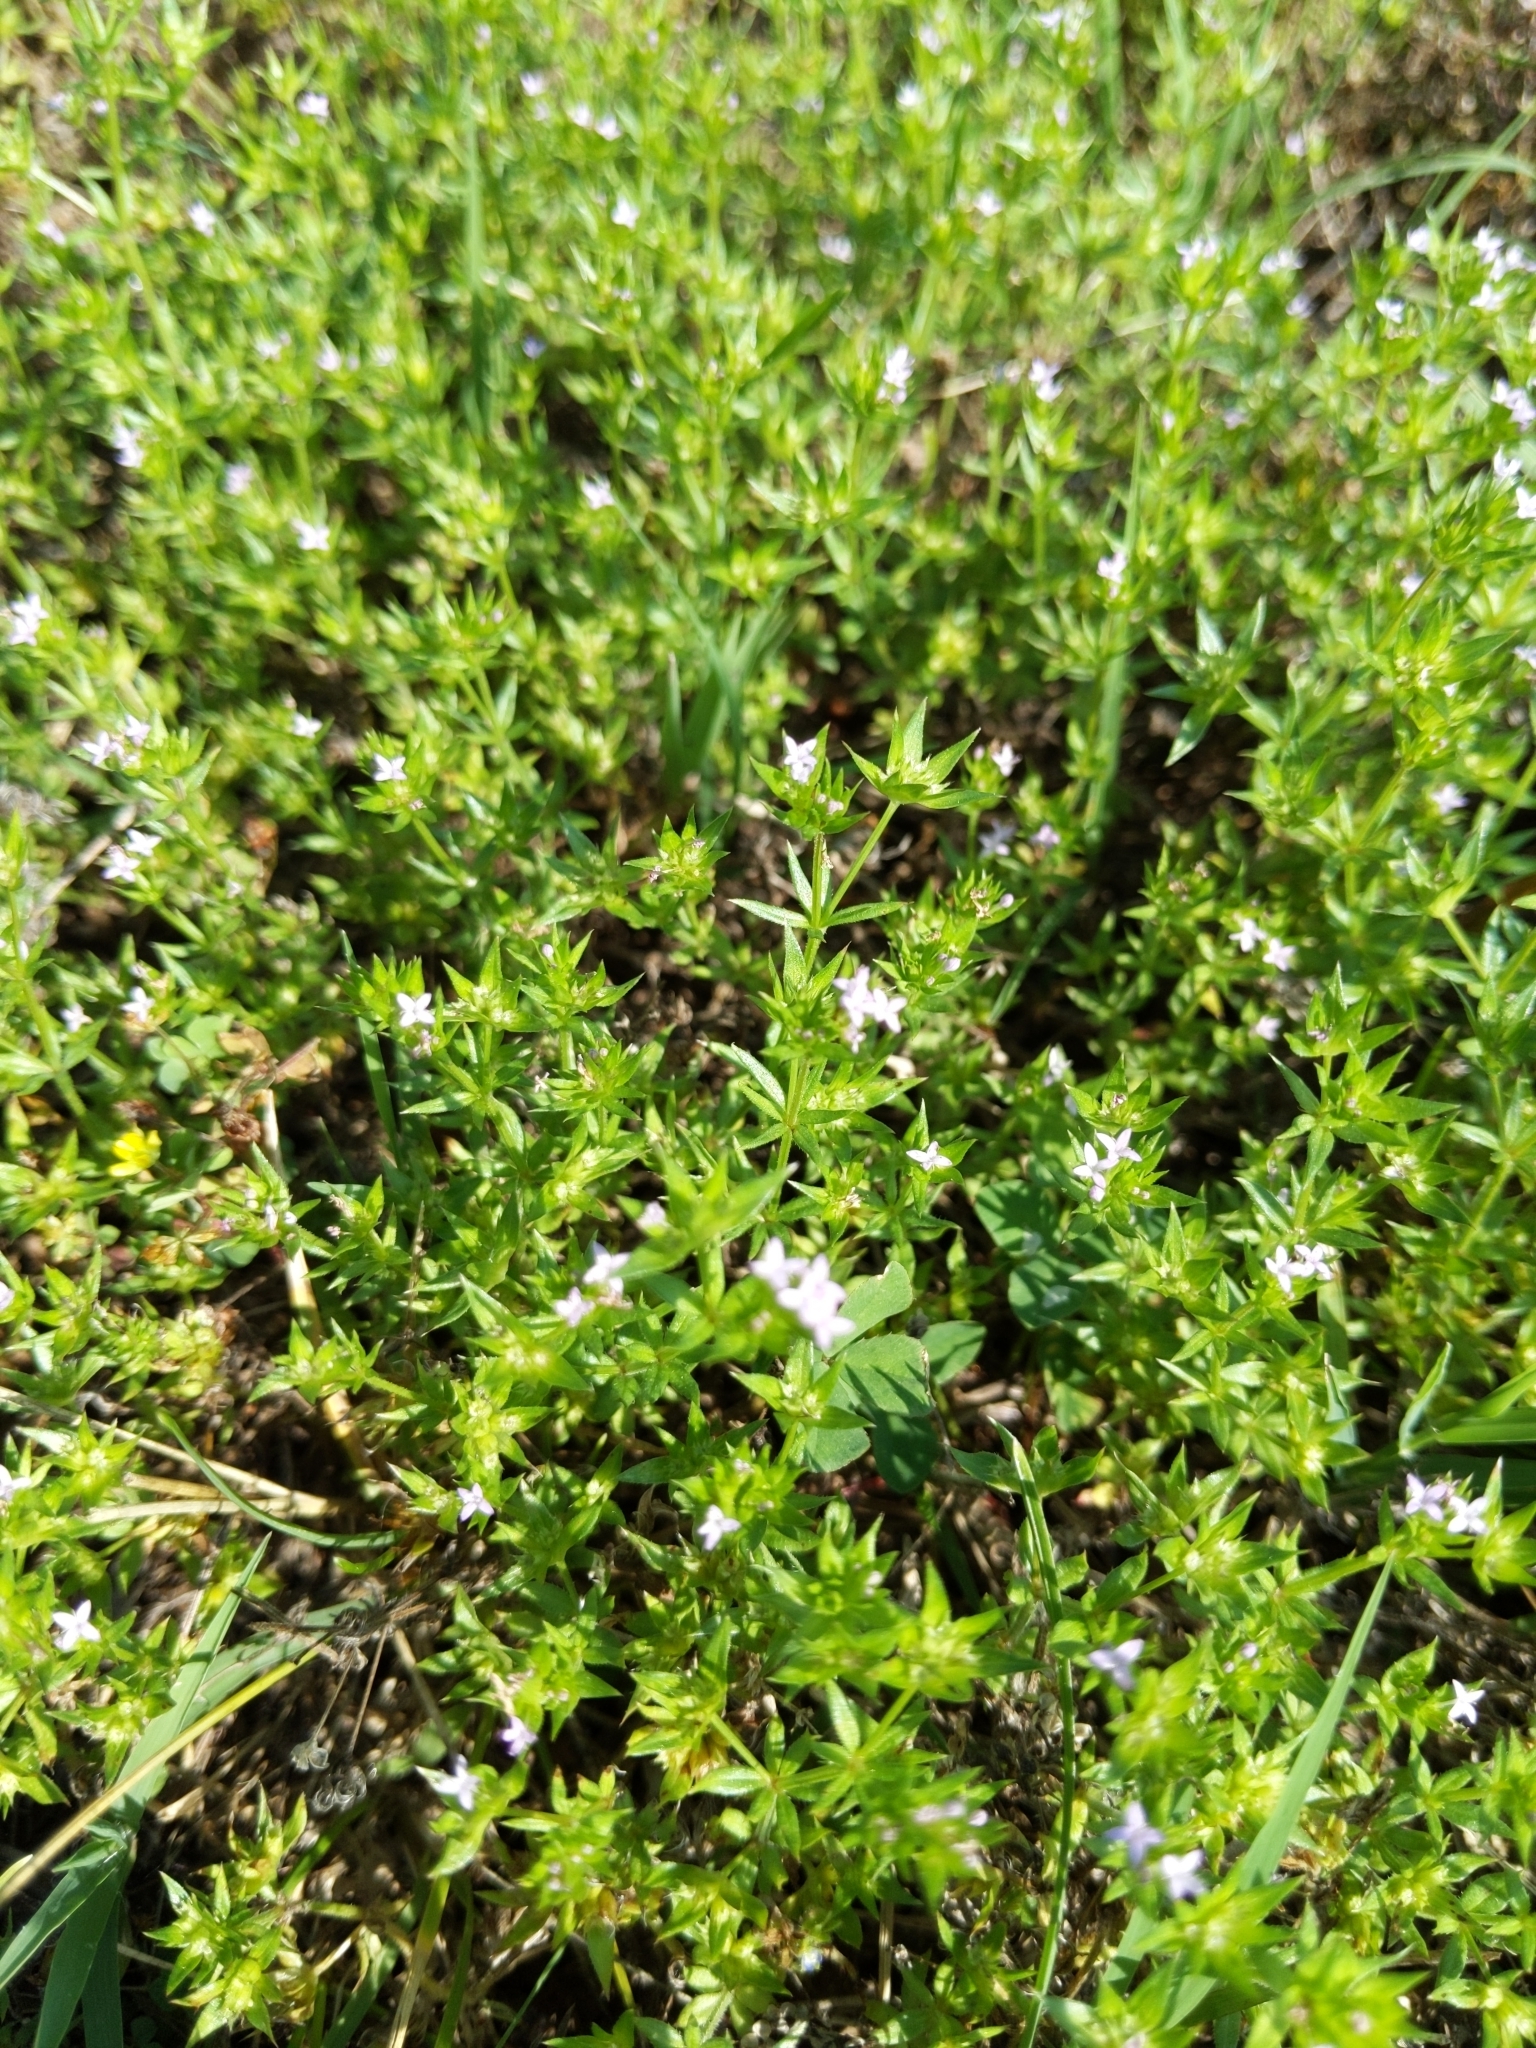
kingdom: Plantae
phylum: Tracheophyta
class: Magnoliopsida
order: Gentianales
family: Rubiaceae
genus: Sherardia
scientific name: Sherardia arvensis
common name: Field madder
